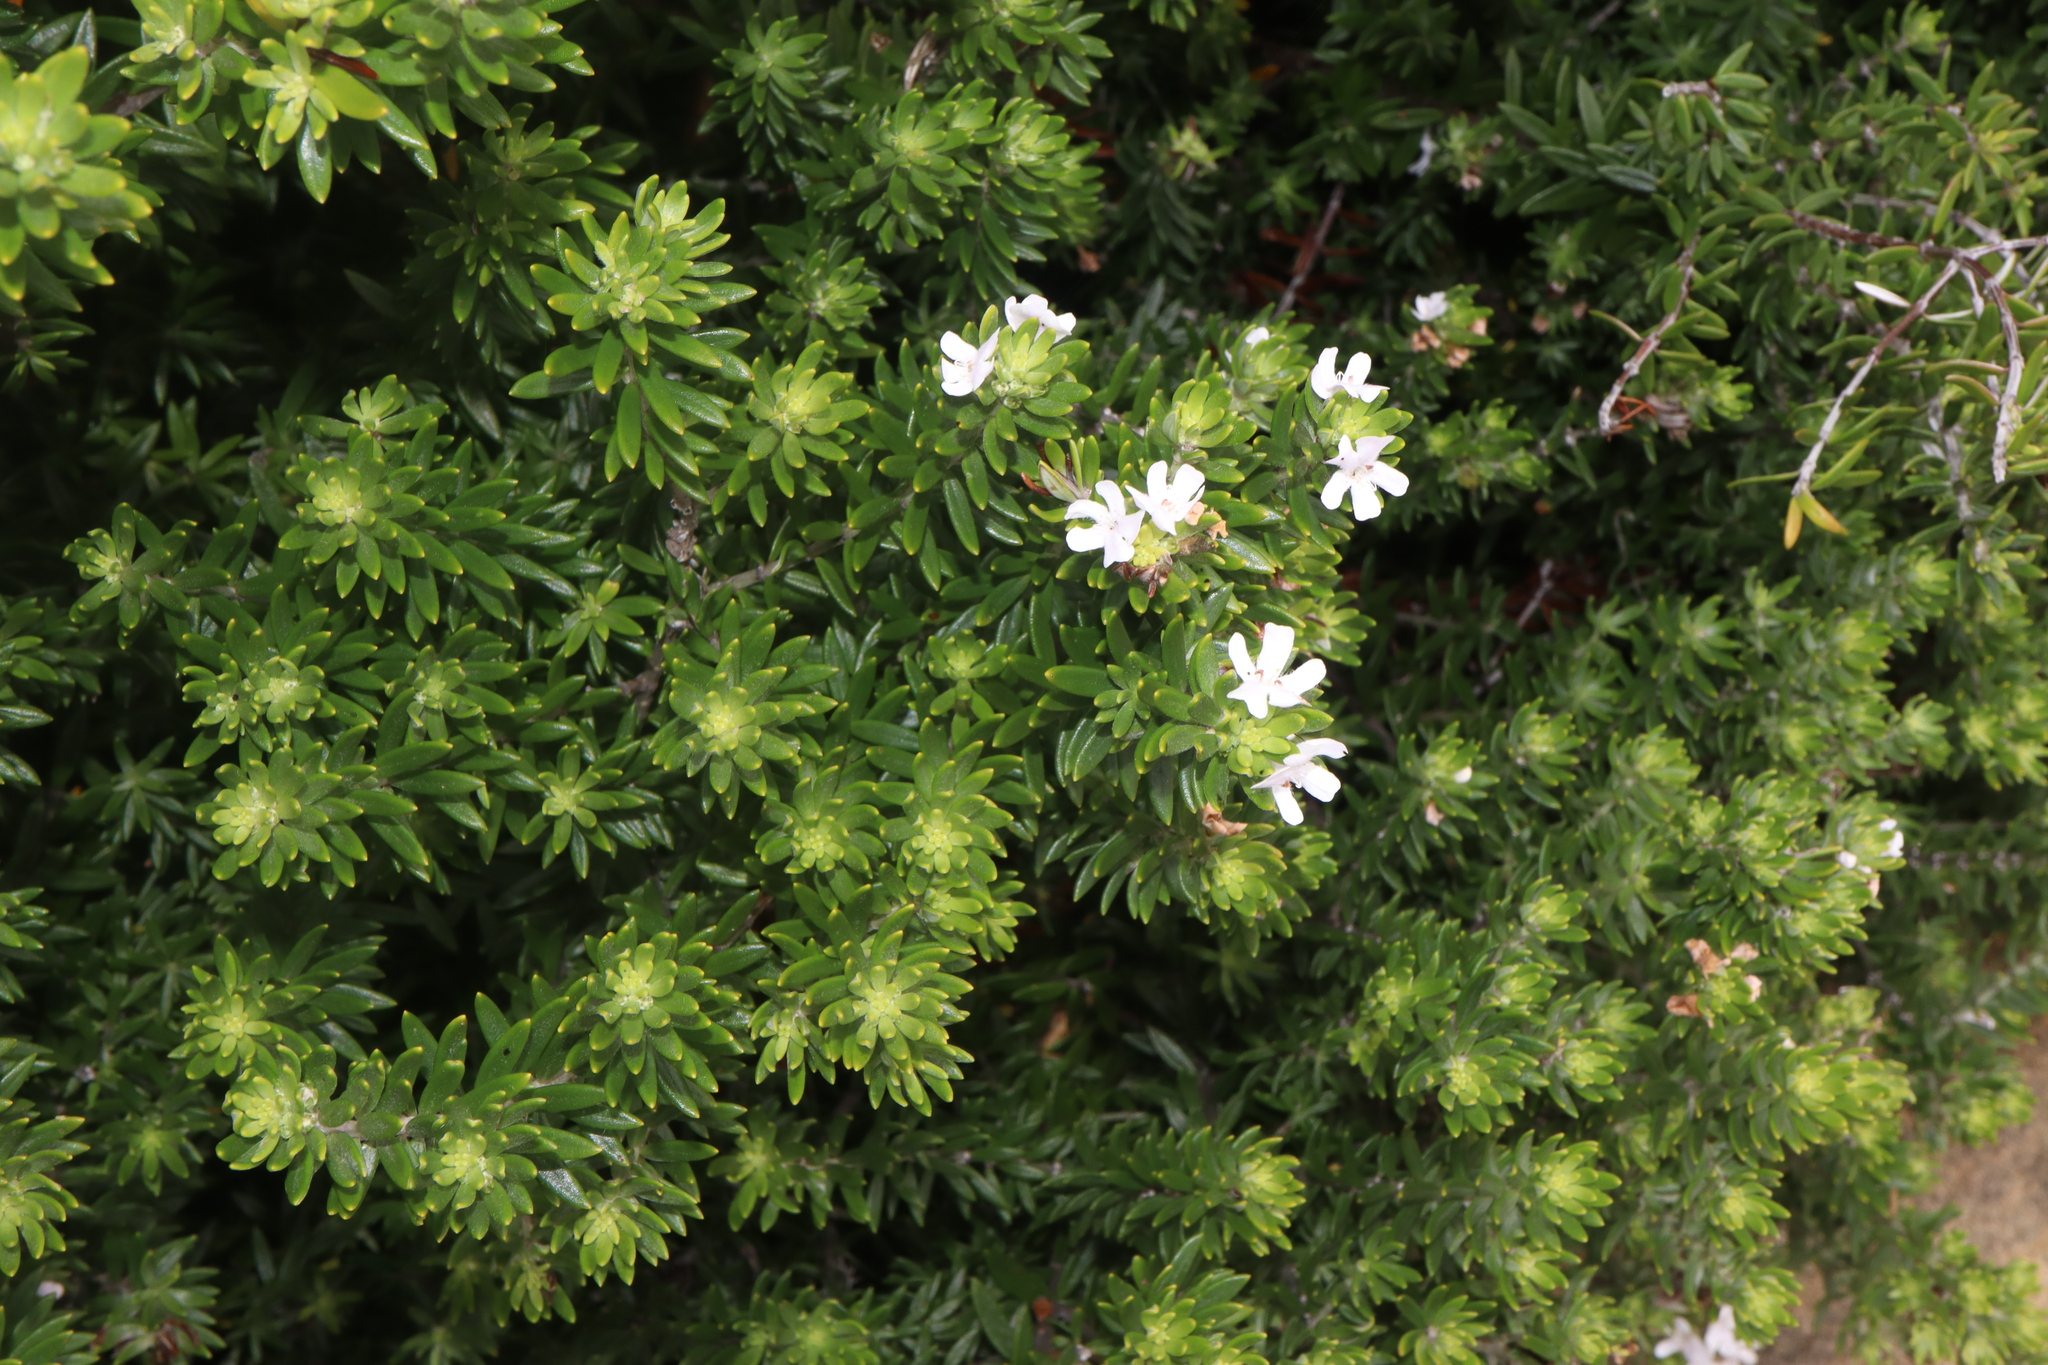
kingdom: Plantae
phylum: Tracheophyta
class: Magnoliopsida
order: Lamiales
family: Lamiaceae
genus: Westringia
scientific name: Westringia fruticosa
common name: Coastal-rosemary
